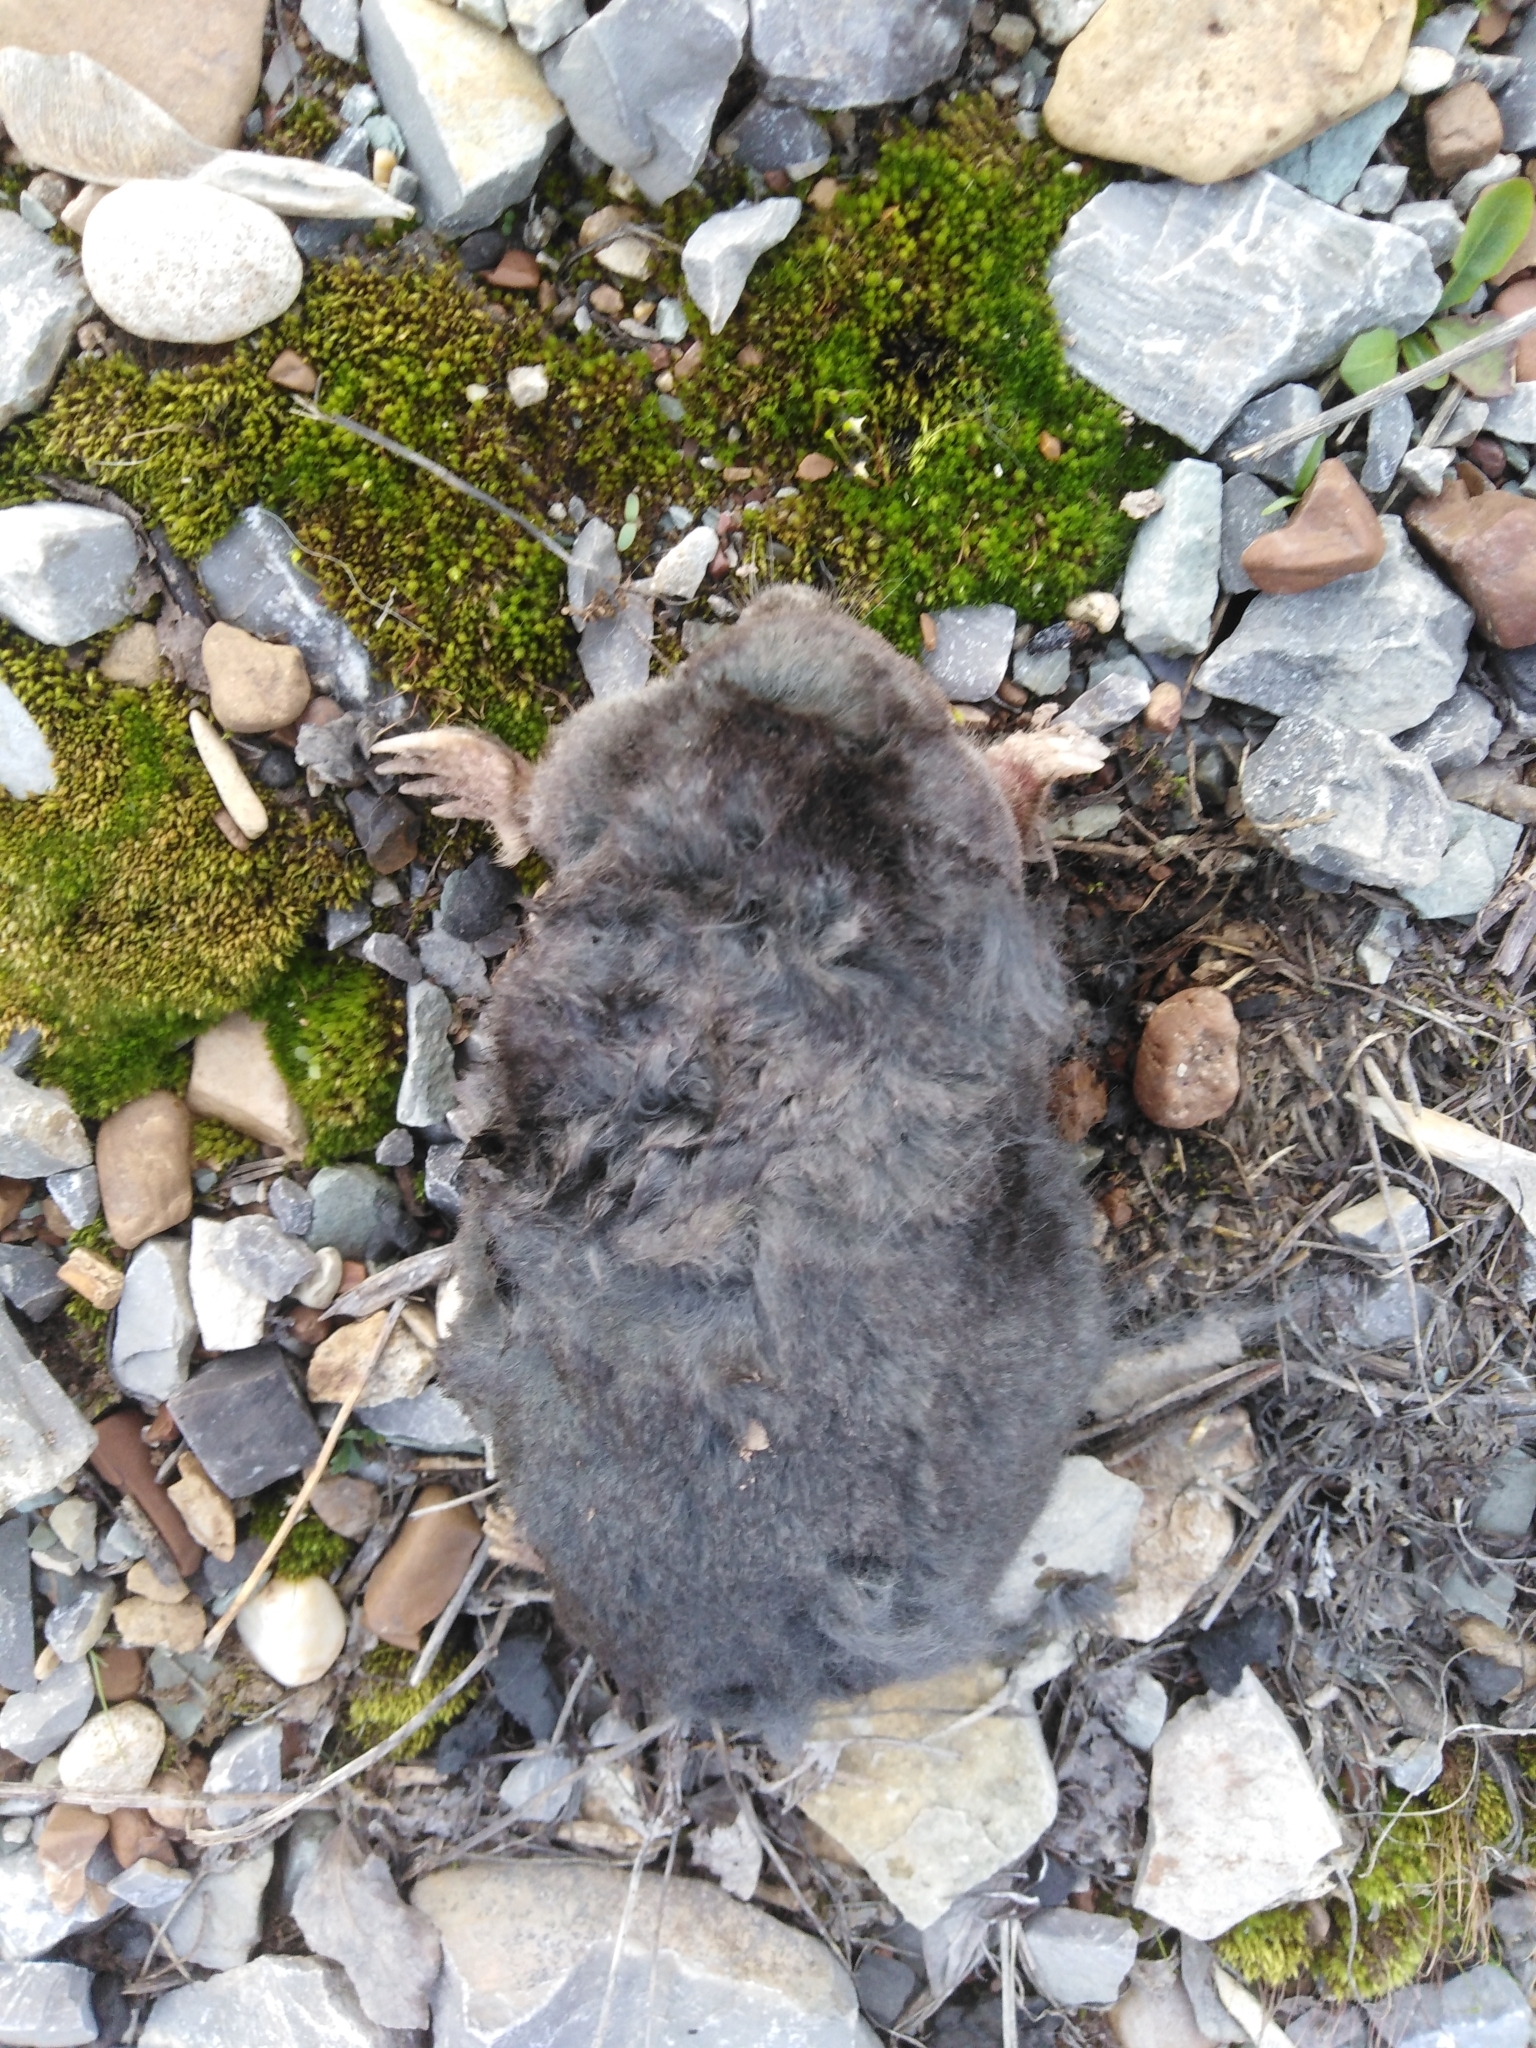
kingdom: Animalia
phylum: Chordata
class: Mammalia
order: Soricomorpha
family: Talpidae
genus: Talpa
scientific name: Talpa europaea
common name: European mole
